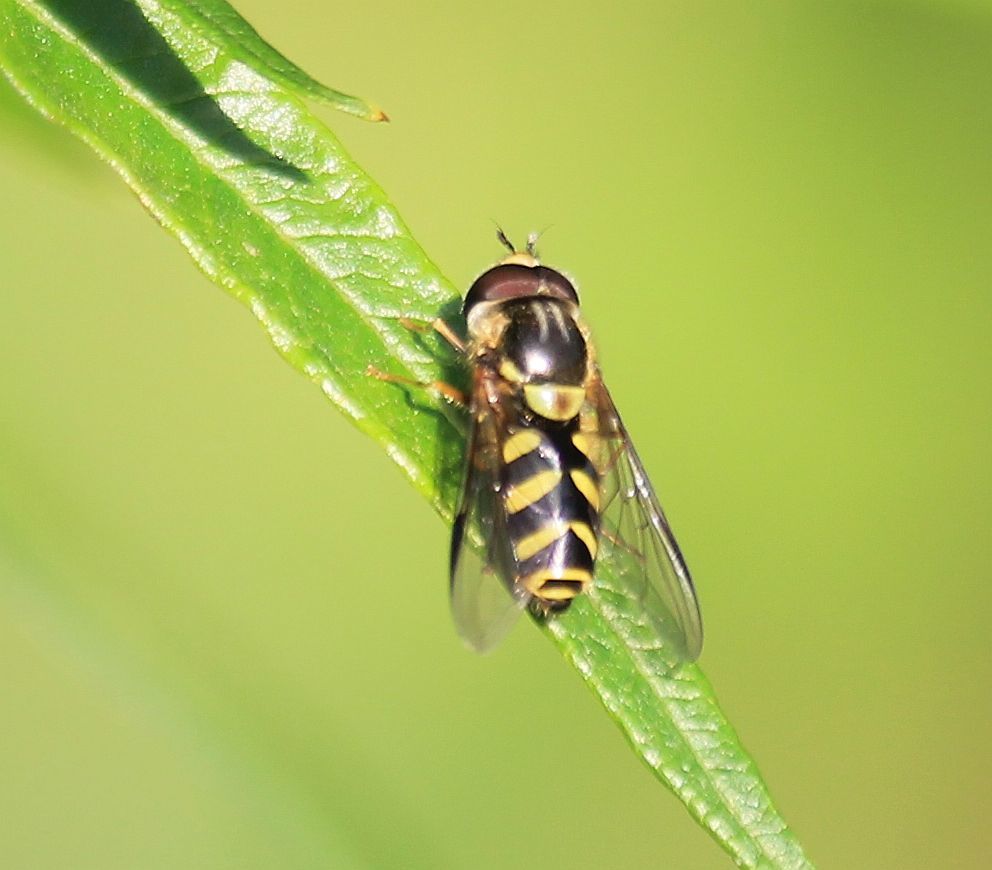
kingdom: Animalia
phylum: Arthropoda
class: Insecta
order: Diptera
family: Syrphidae
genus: Dasysyrphus
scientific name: Dasysyrphus albostriatus
